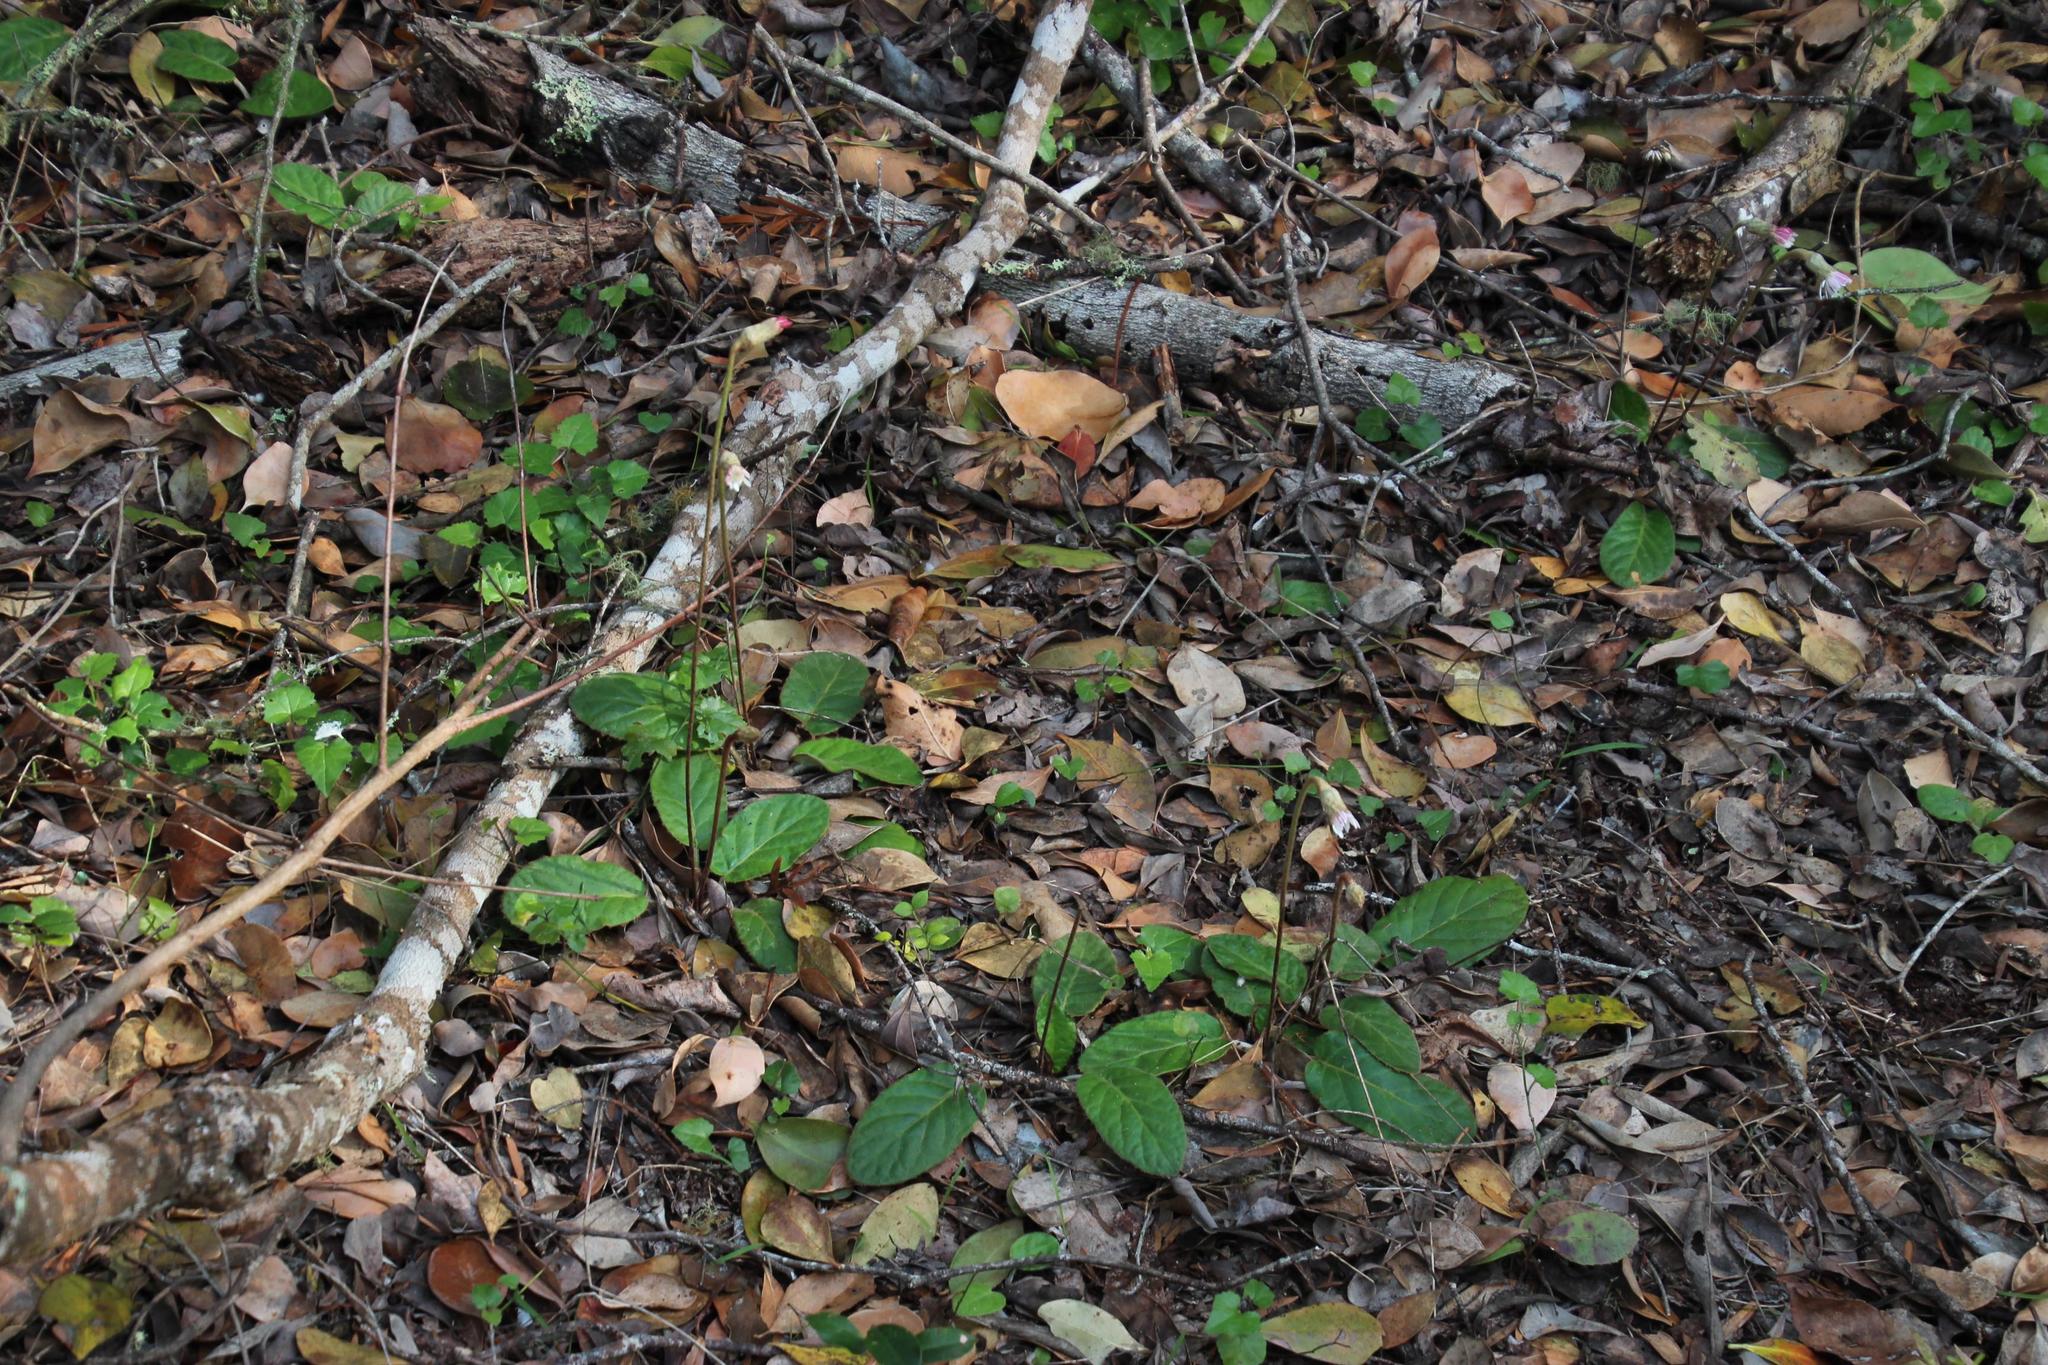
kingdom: Plantae
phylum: Tracheophyta
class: Magnoliopsida
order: Asterales
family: Asteraceae
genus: Piloselloides
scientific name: Piloselloides cordata
